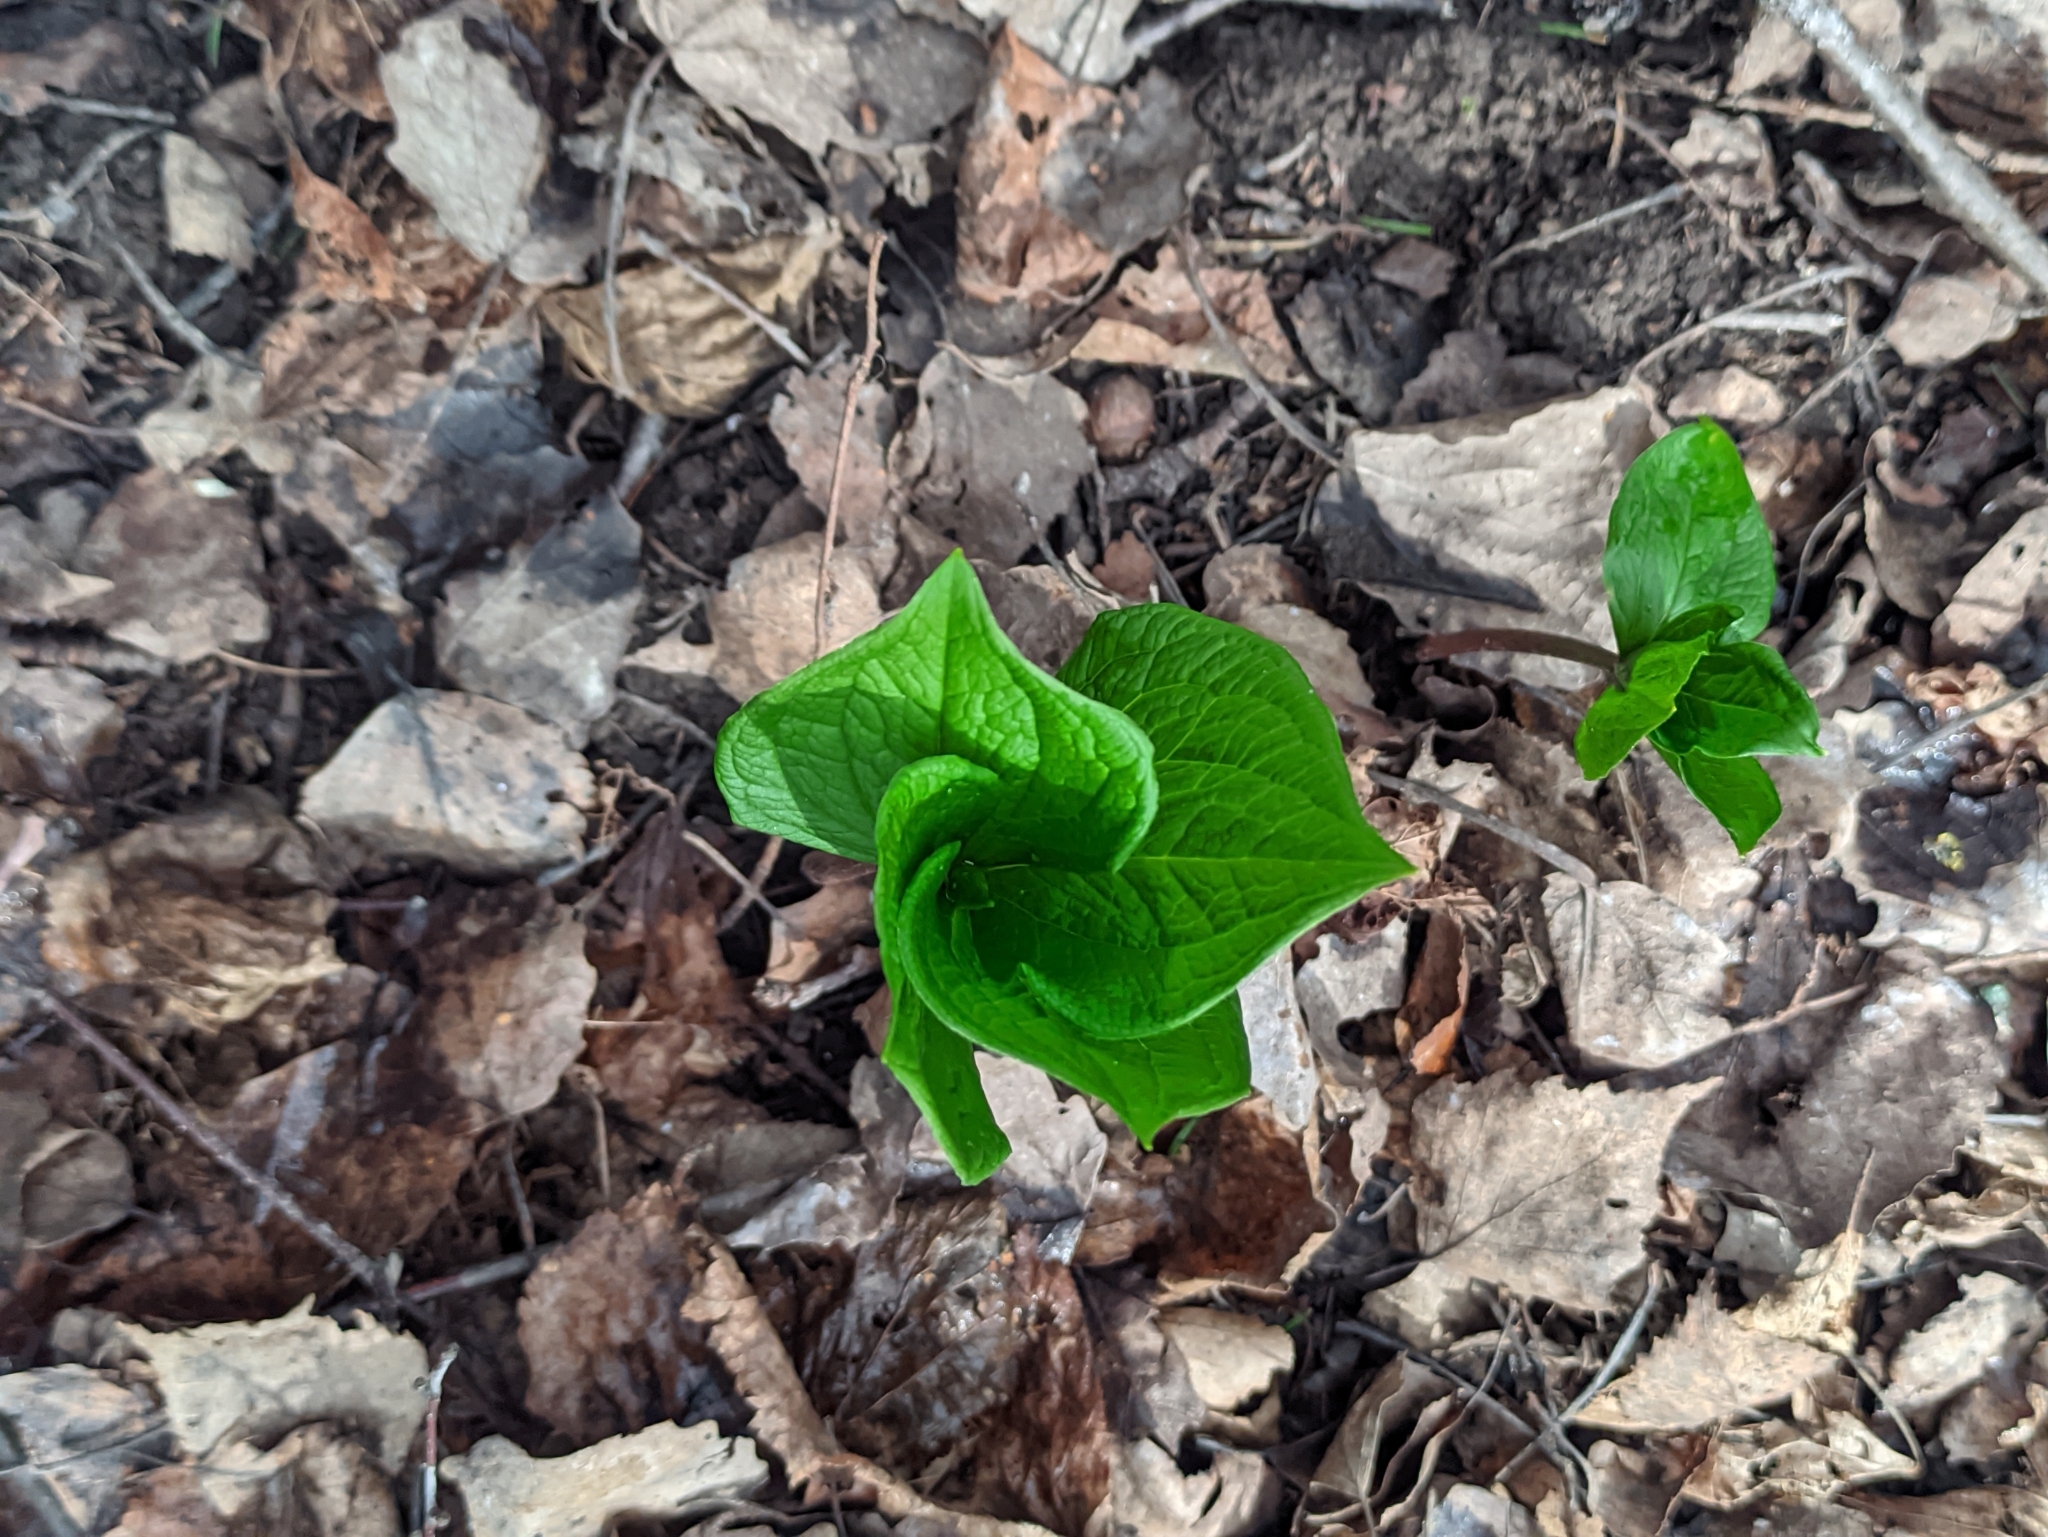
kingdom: Plantae
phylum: Tracheophyta
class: Liliopsida
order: Liliales
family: Melanthiaceae
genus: Paris
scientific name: Paris quadrifolia
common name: Herb-paris
